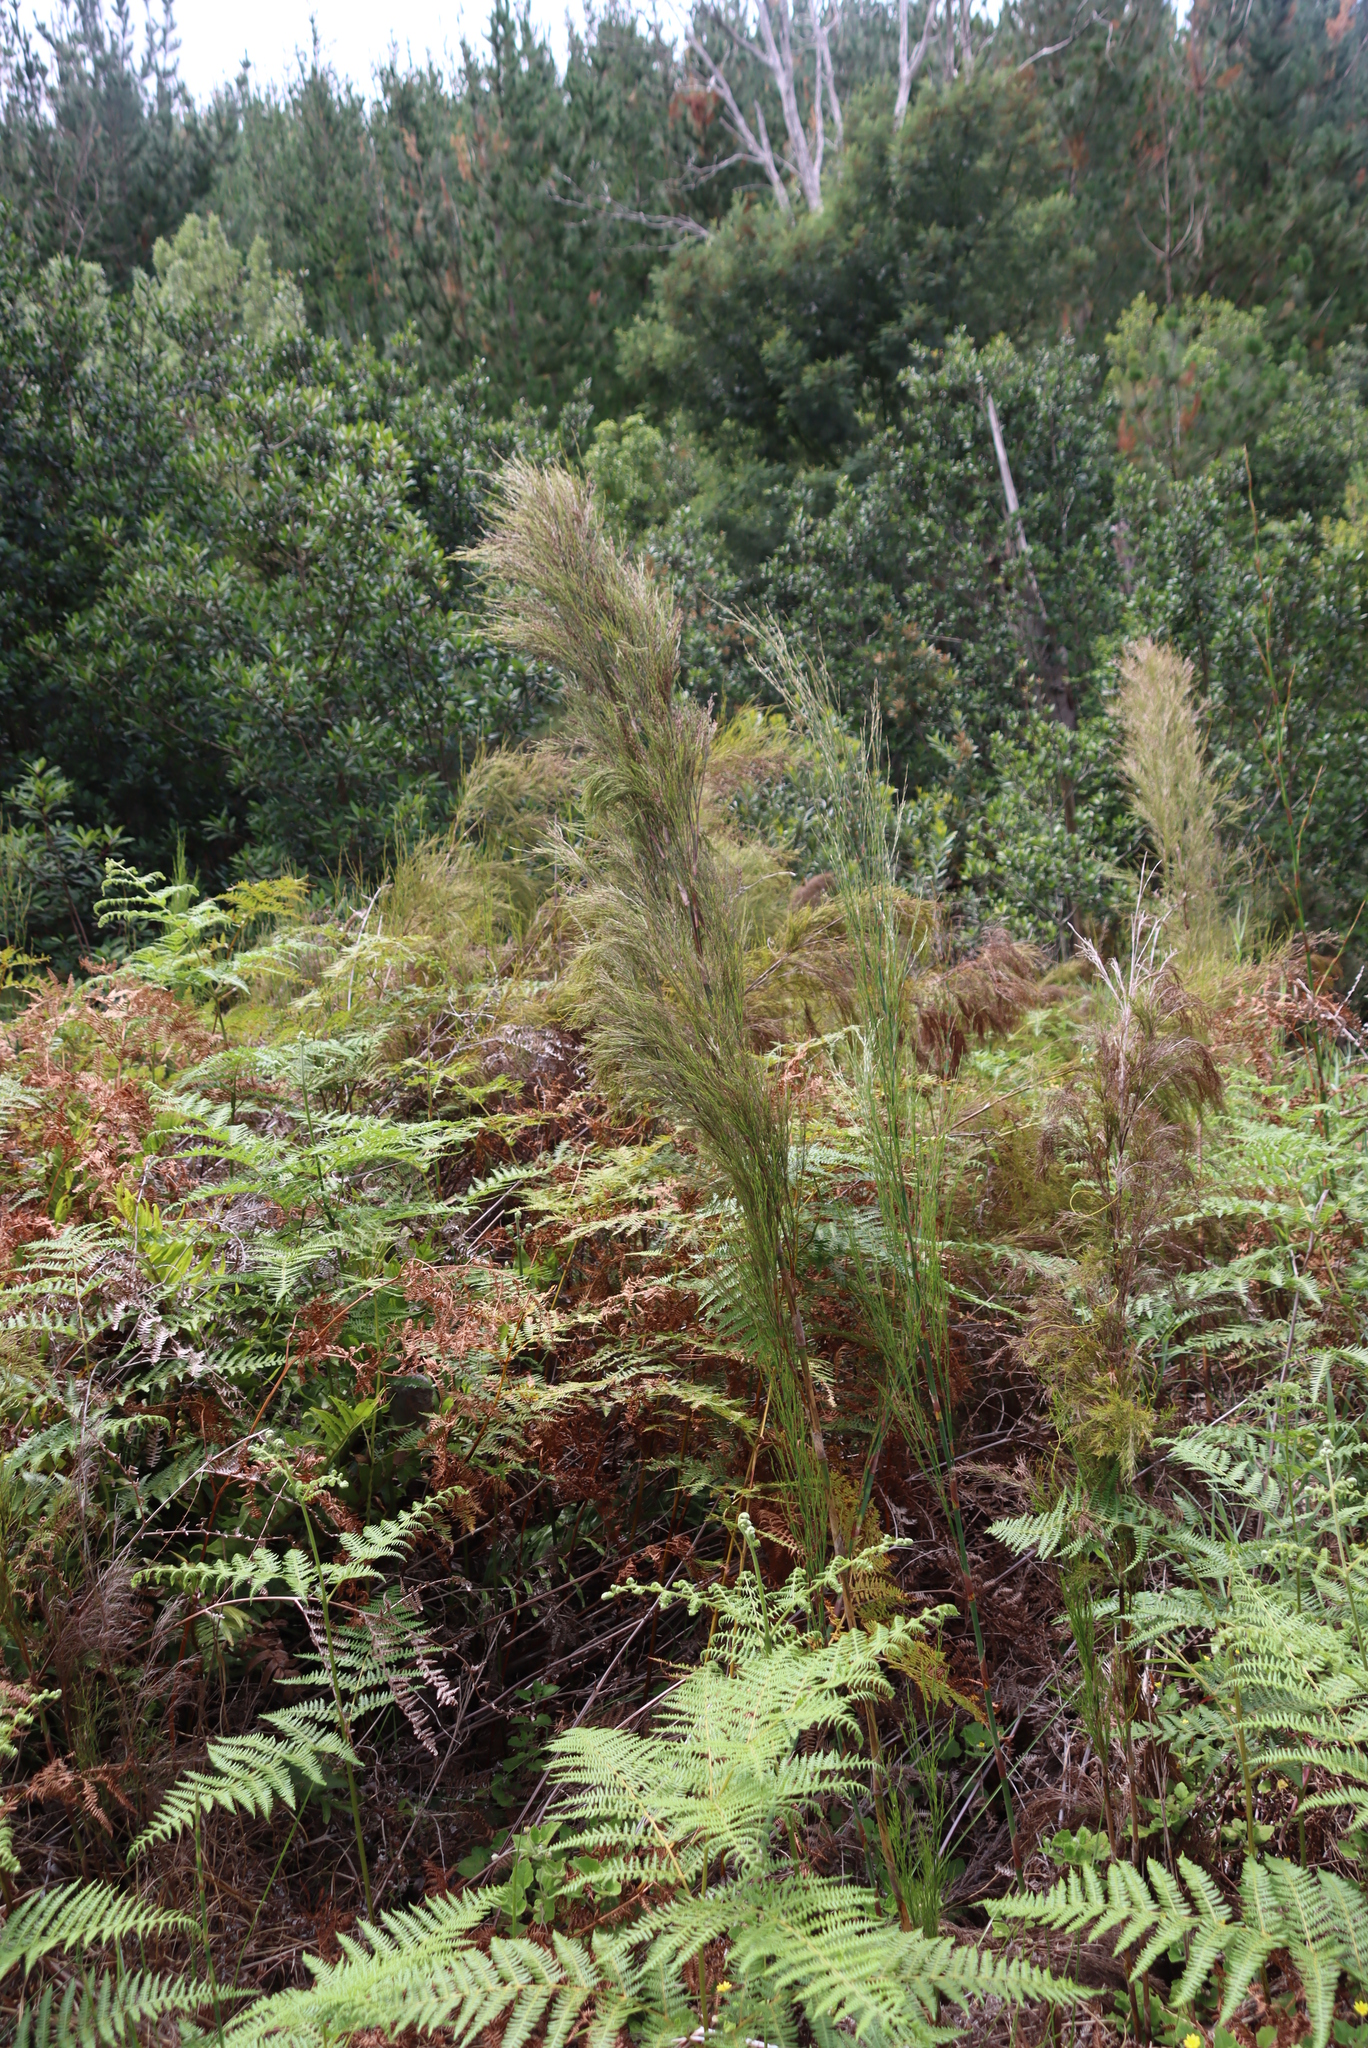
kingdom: Plantae
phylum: Tracheophyta
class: Liliopsida
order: Poales
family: Restionaceae
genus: Restio
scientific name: Restio paniculatus
